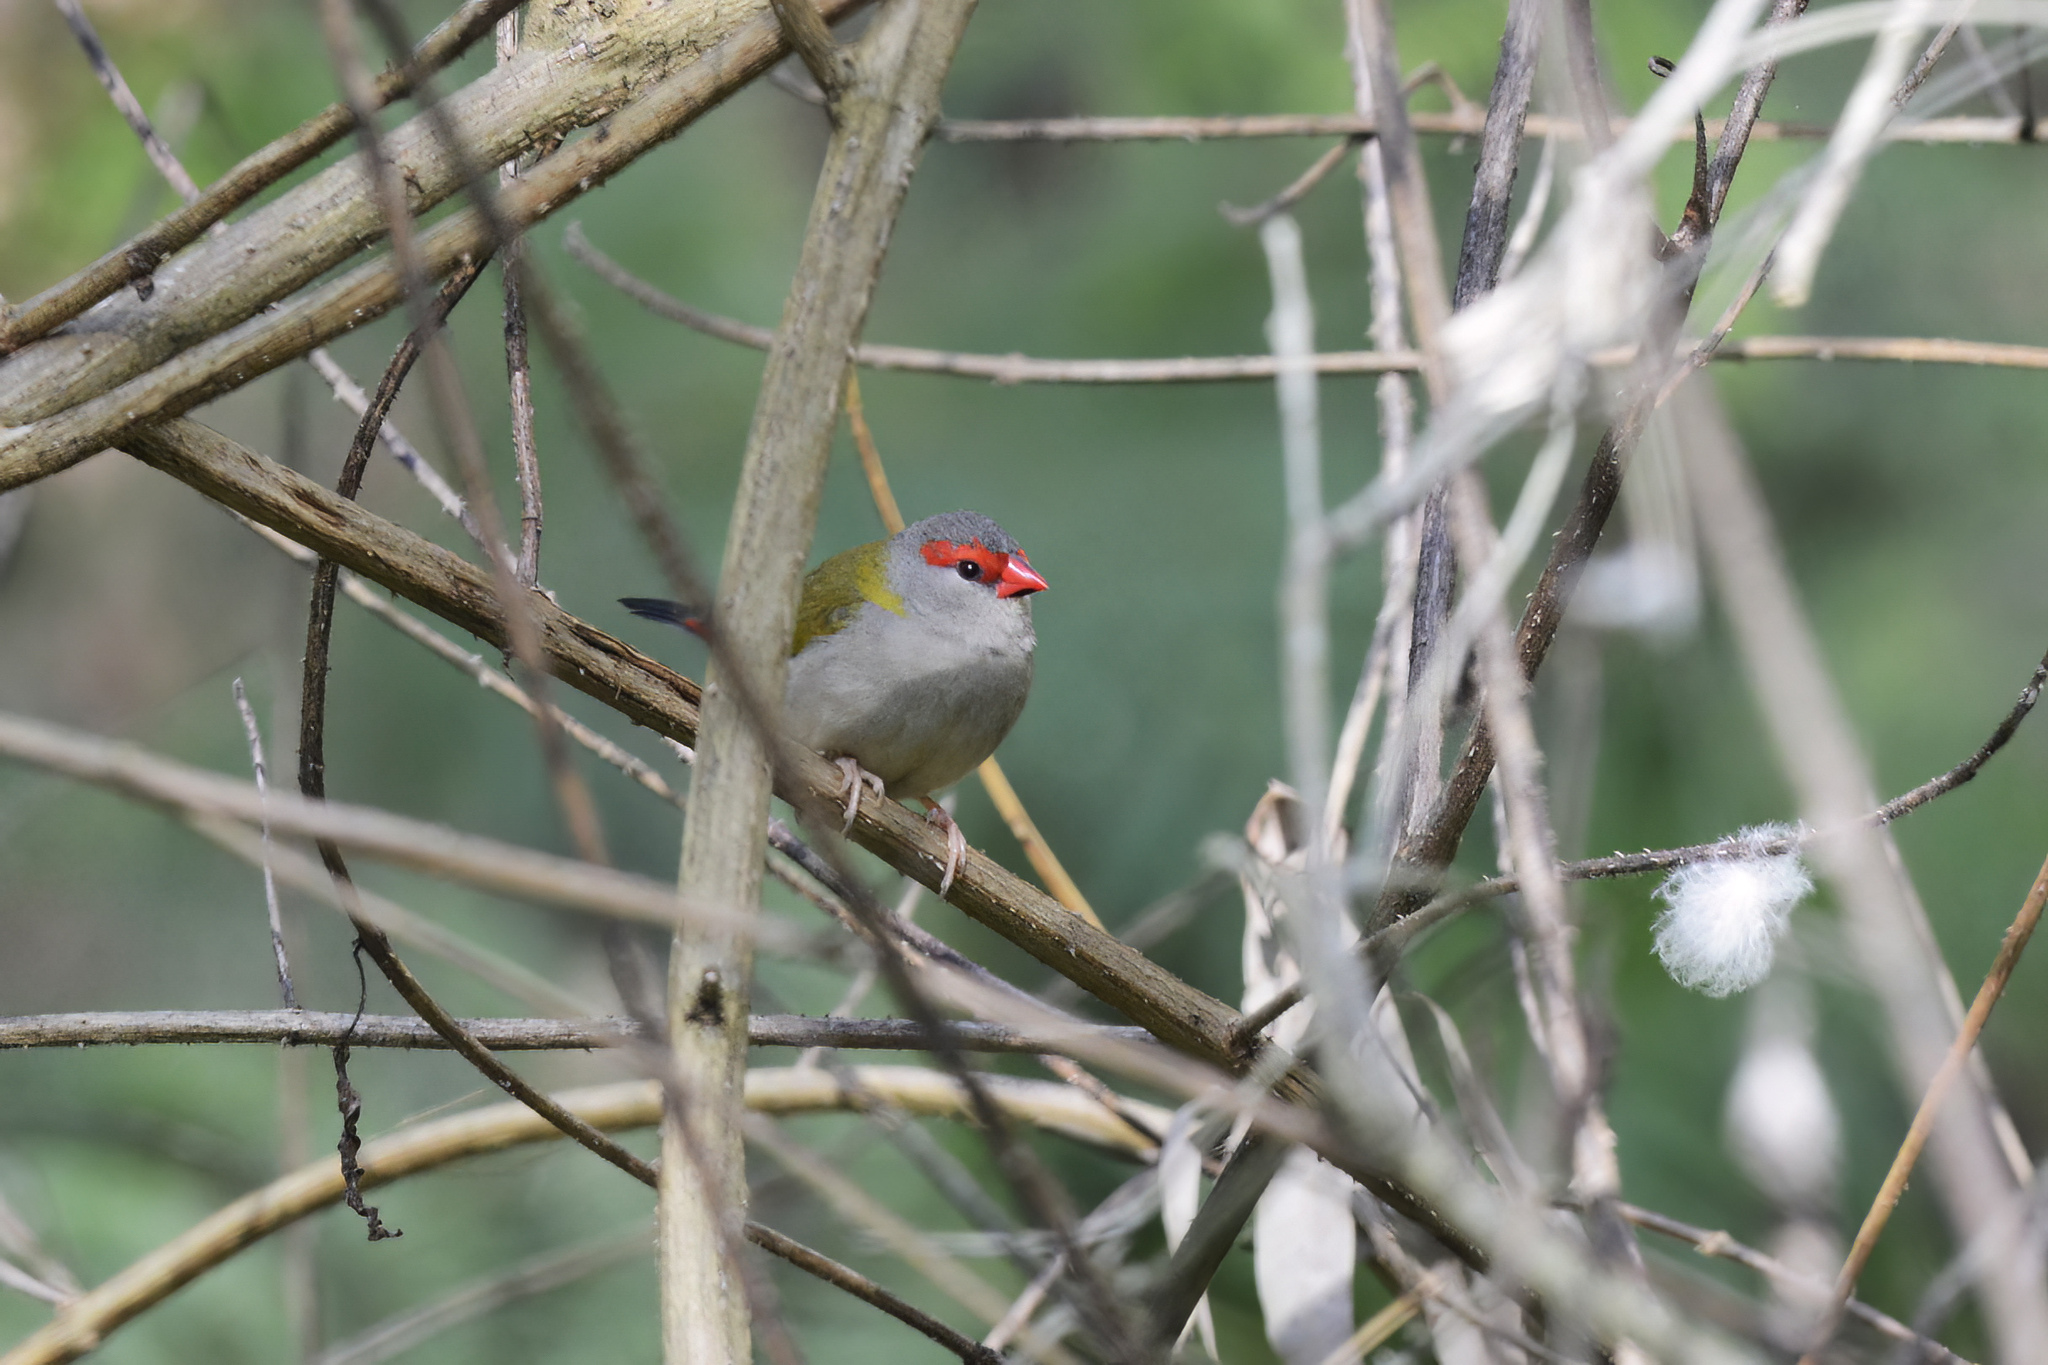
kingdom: Animalia
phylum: Chordata
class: Aves
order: Passeriformes
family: Estrildidae
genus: Neochmia
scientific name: Neochmia temporalis
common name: Red-browed finch
